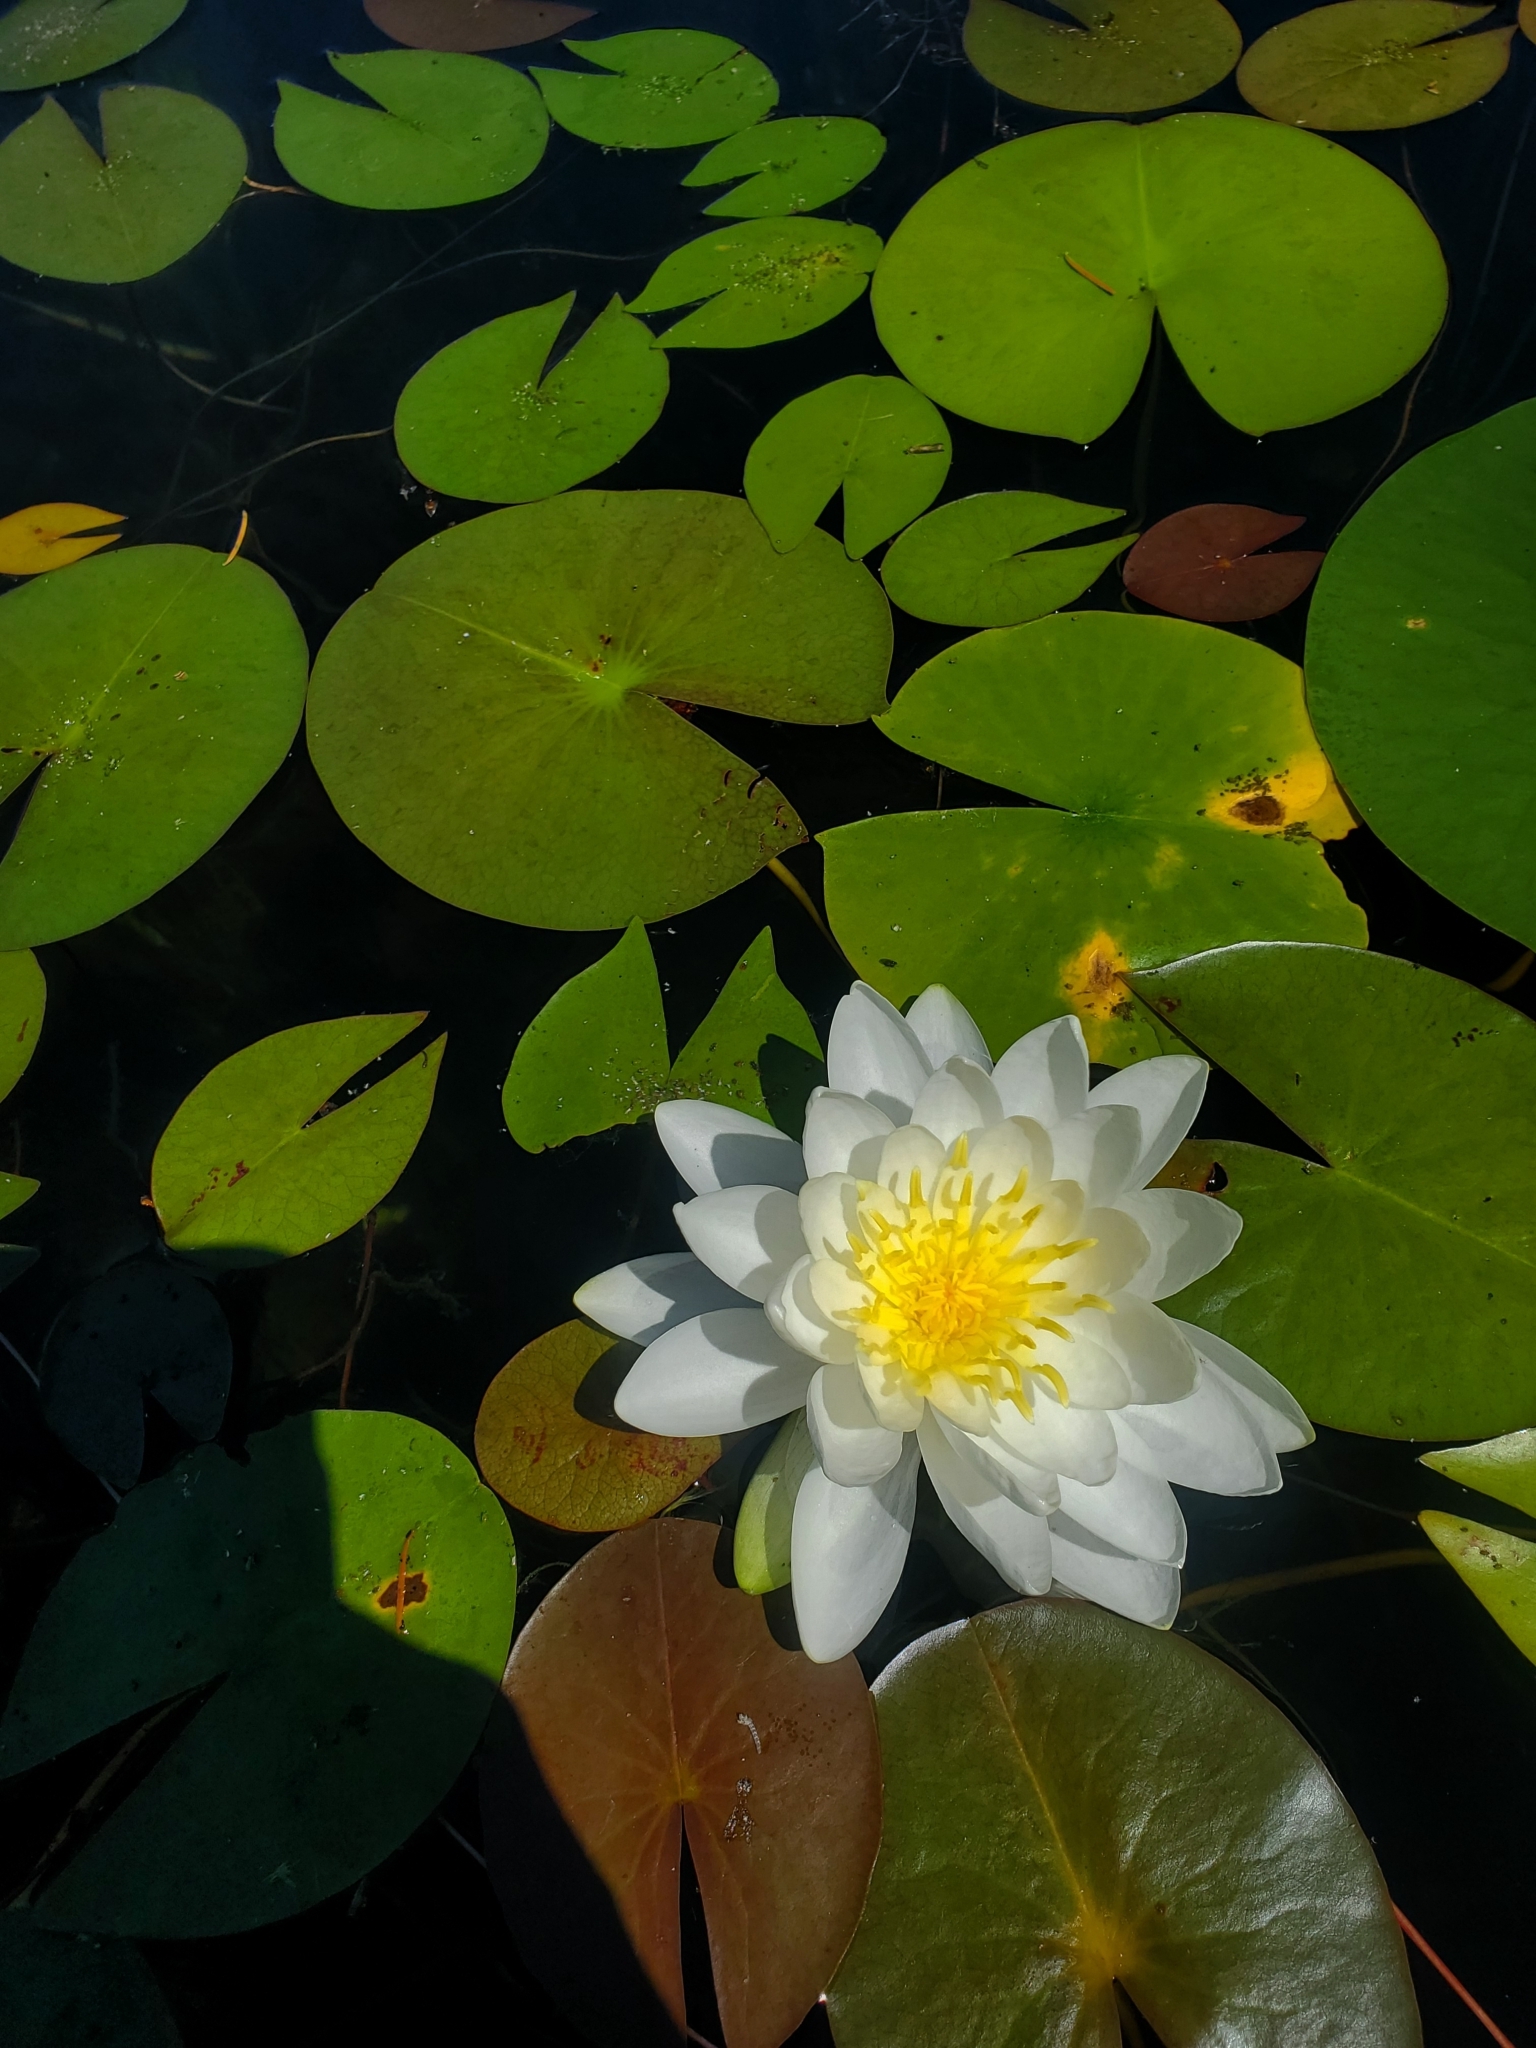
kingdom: Plantae
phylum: Tracheophyta
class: Magnoliopsida
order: Nymphaeales
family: Nymphaeaceae
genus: Nymphaea
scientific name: Nymphaea odorata
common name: Fragrant water-lily
